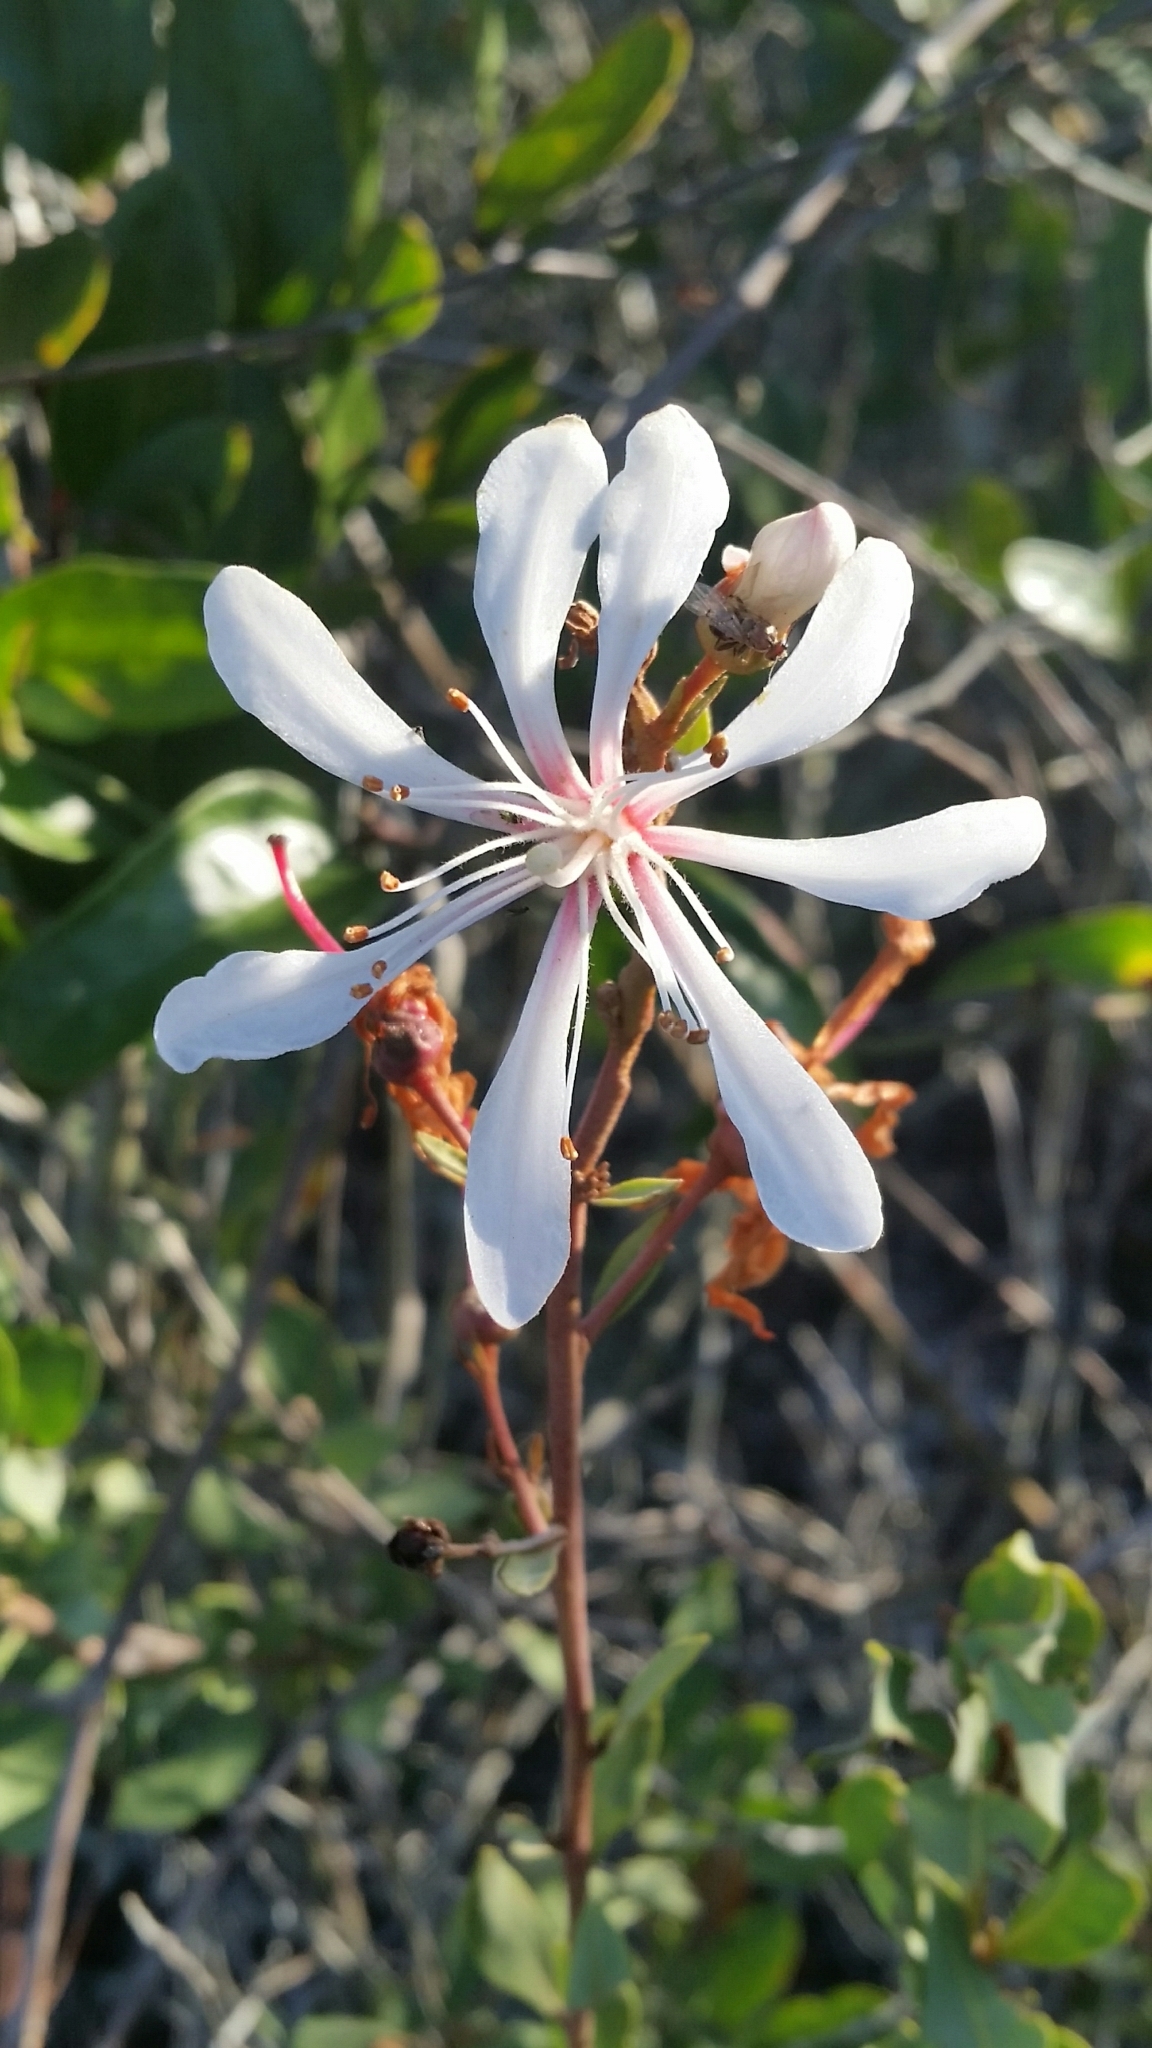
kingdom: Plantae
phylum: Tracheophyta
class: Magnoliopsida
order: Ericales
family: Ericaceae
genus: Bejaria
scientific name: Bejaria racemosa
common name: Tarflower
